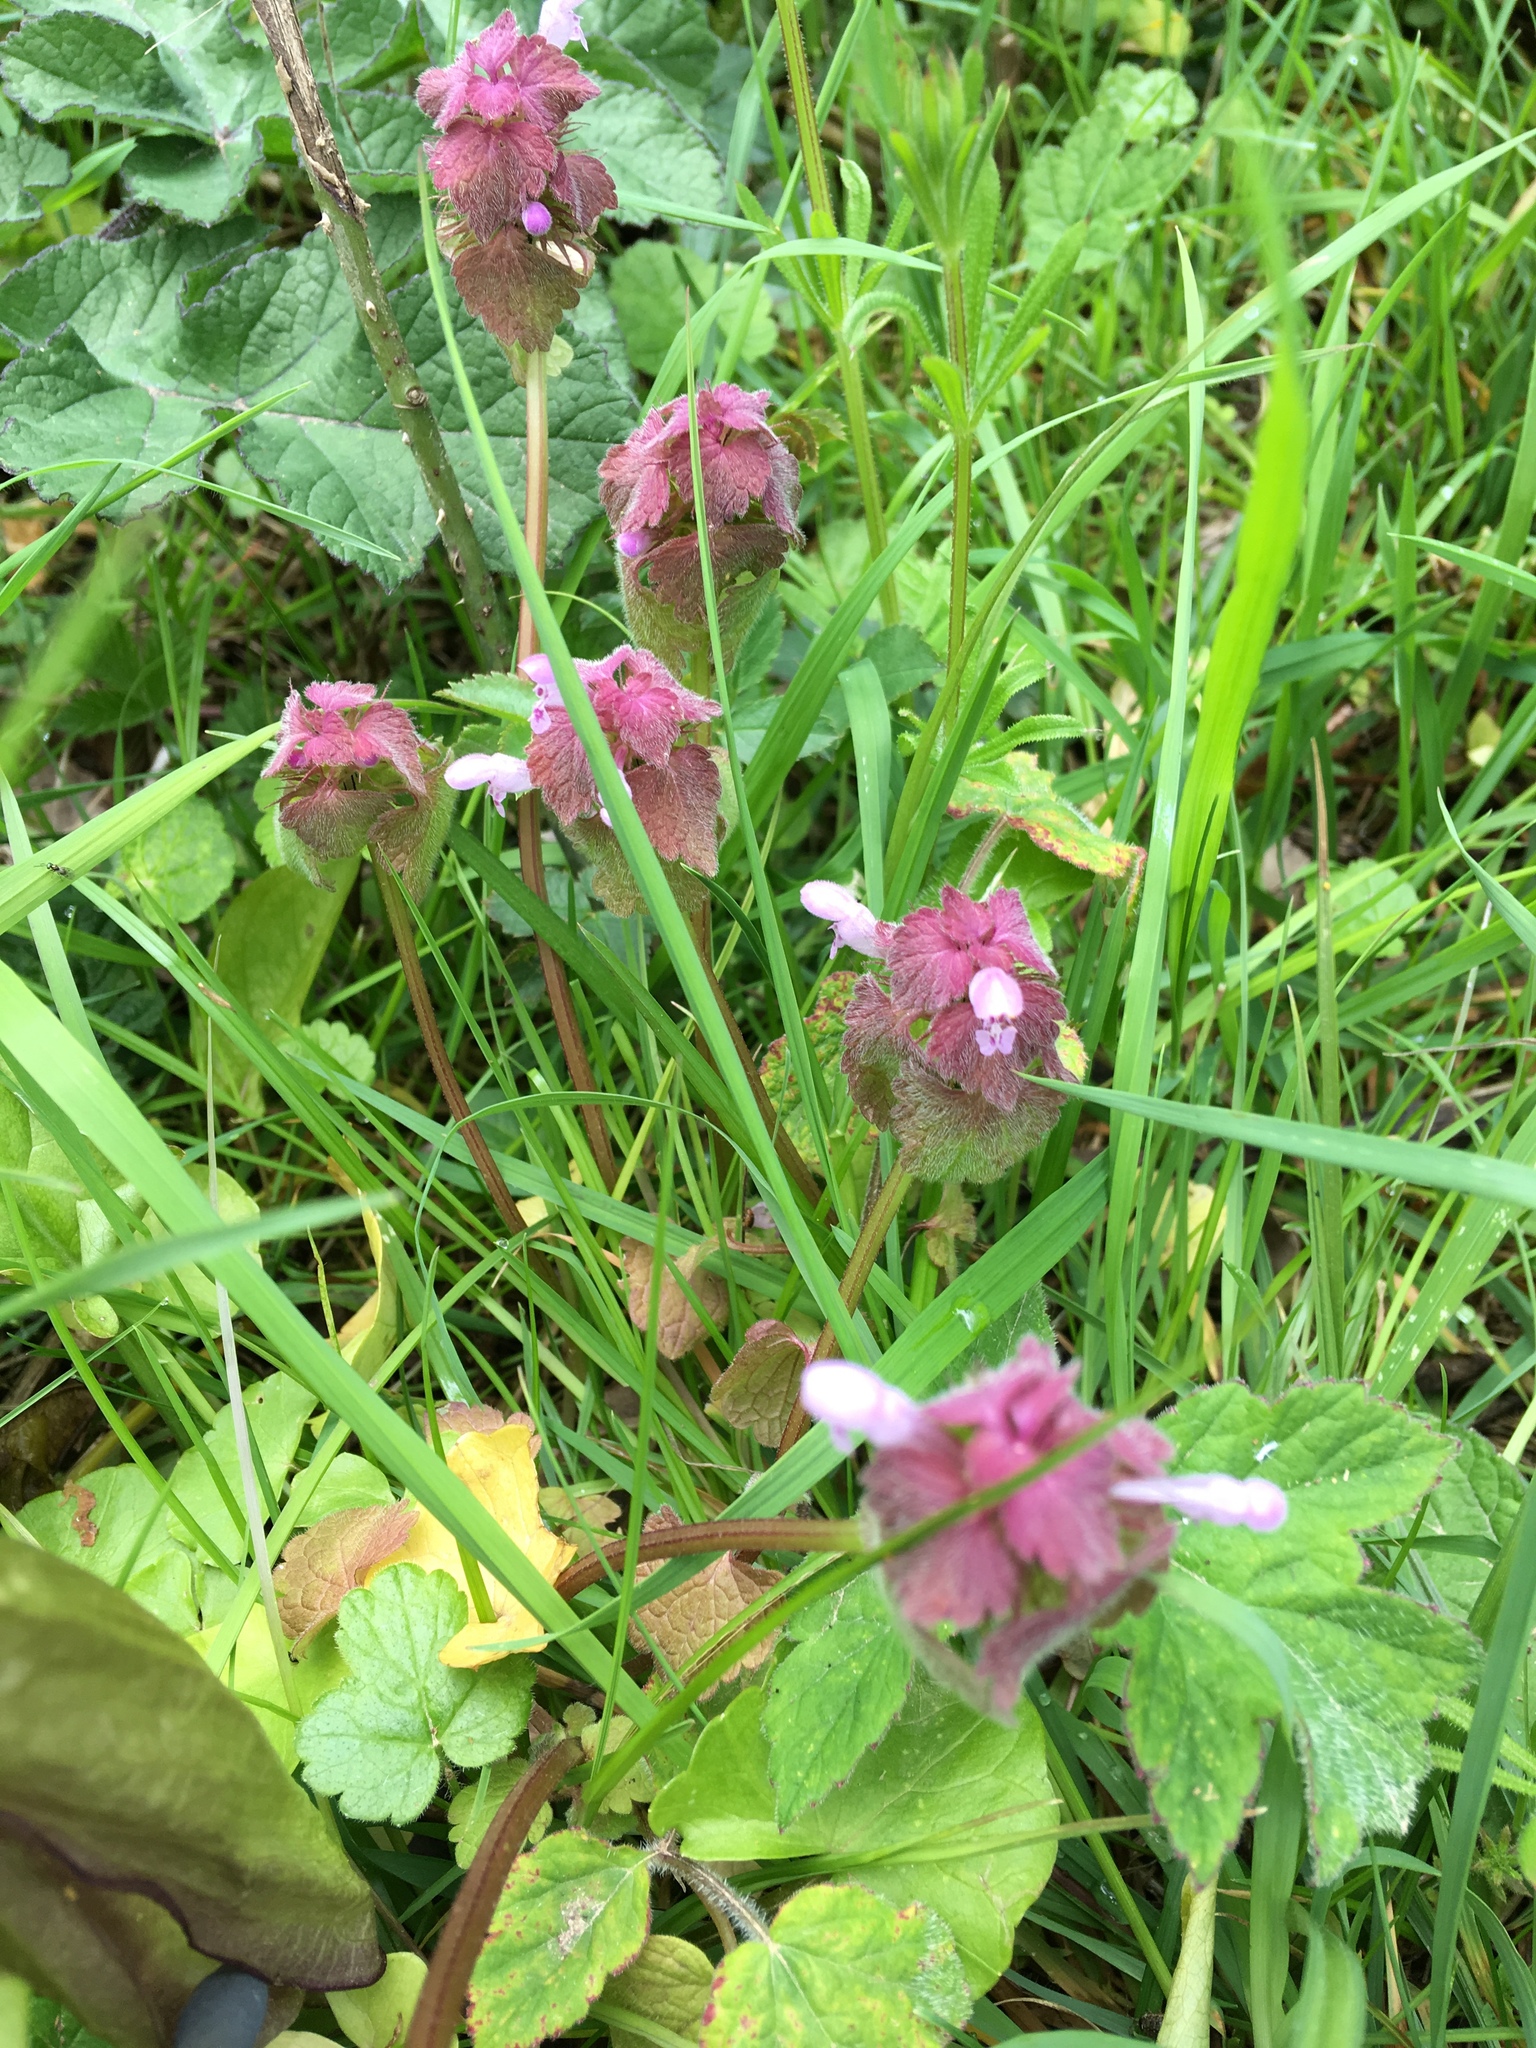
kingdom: Plantae
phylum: Tracheophyta
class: Magnoliopsida
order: Lamiales
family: Lamiaceae
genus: Lamium
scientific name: Lamium purpureum
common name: Red dead-nettle
